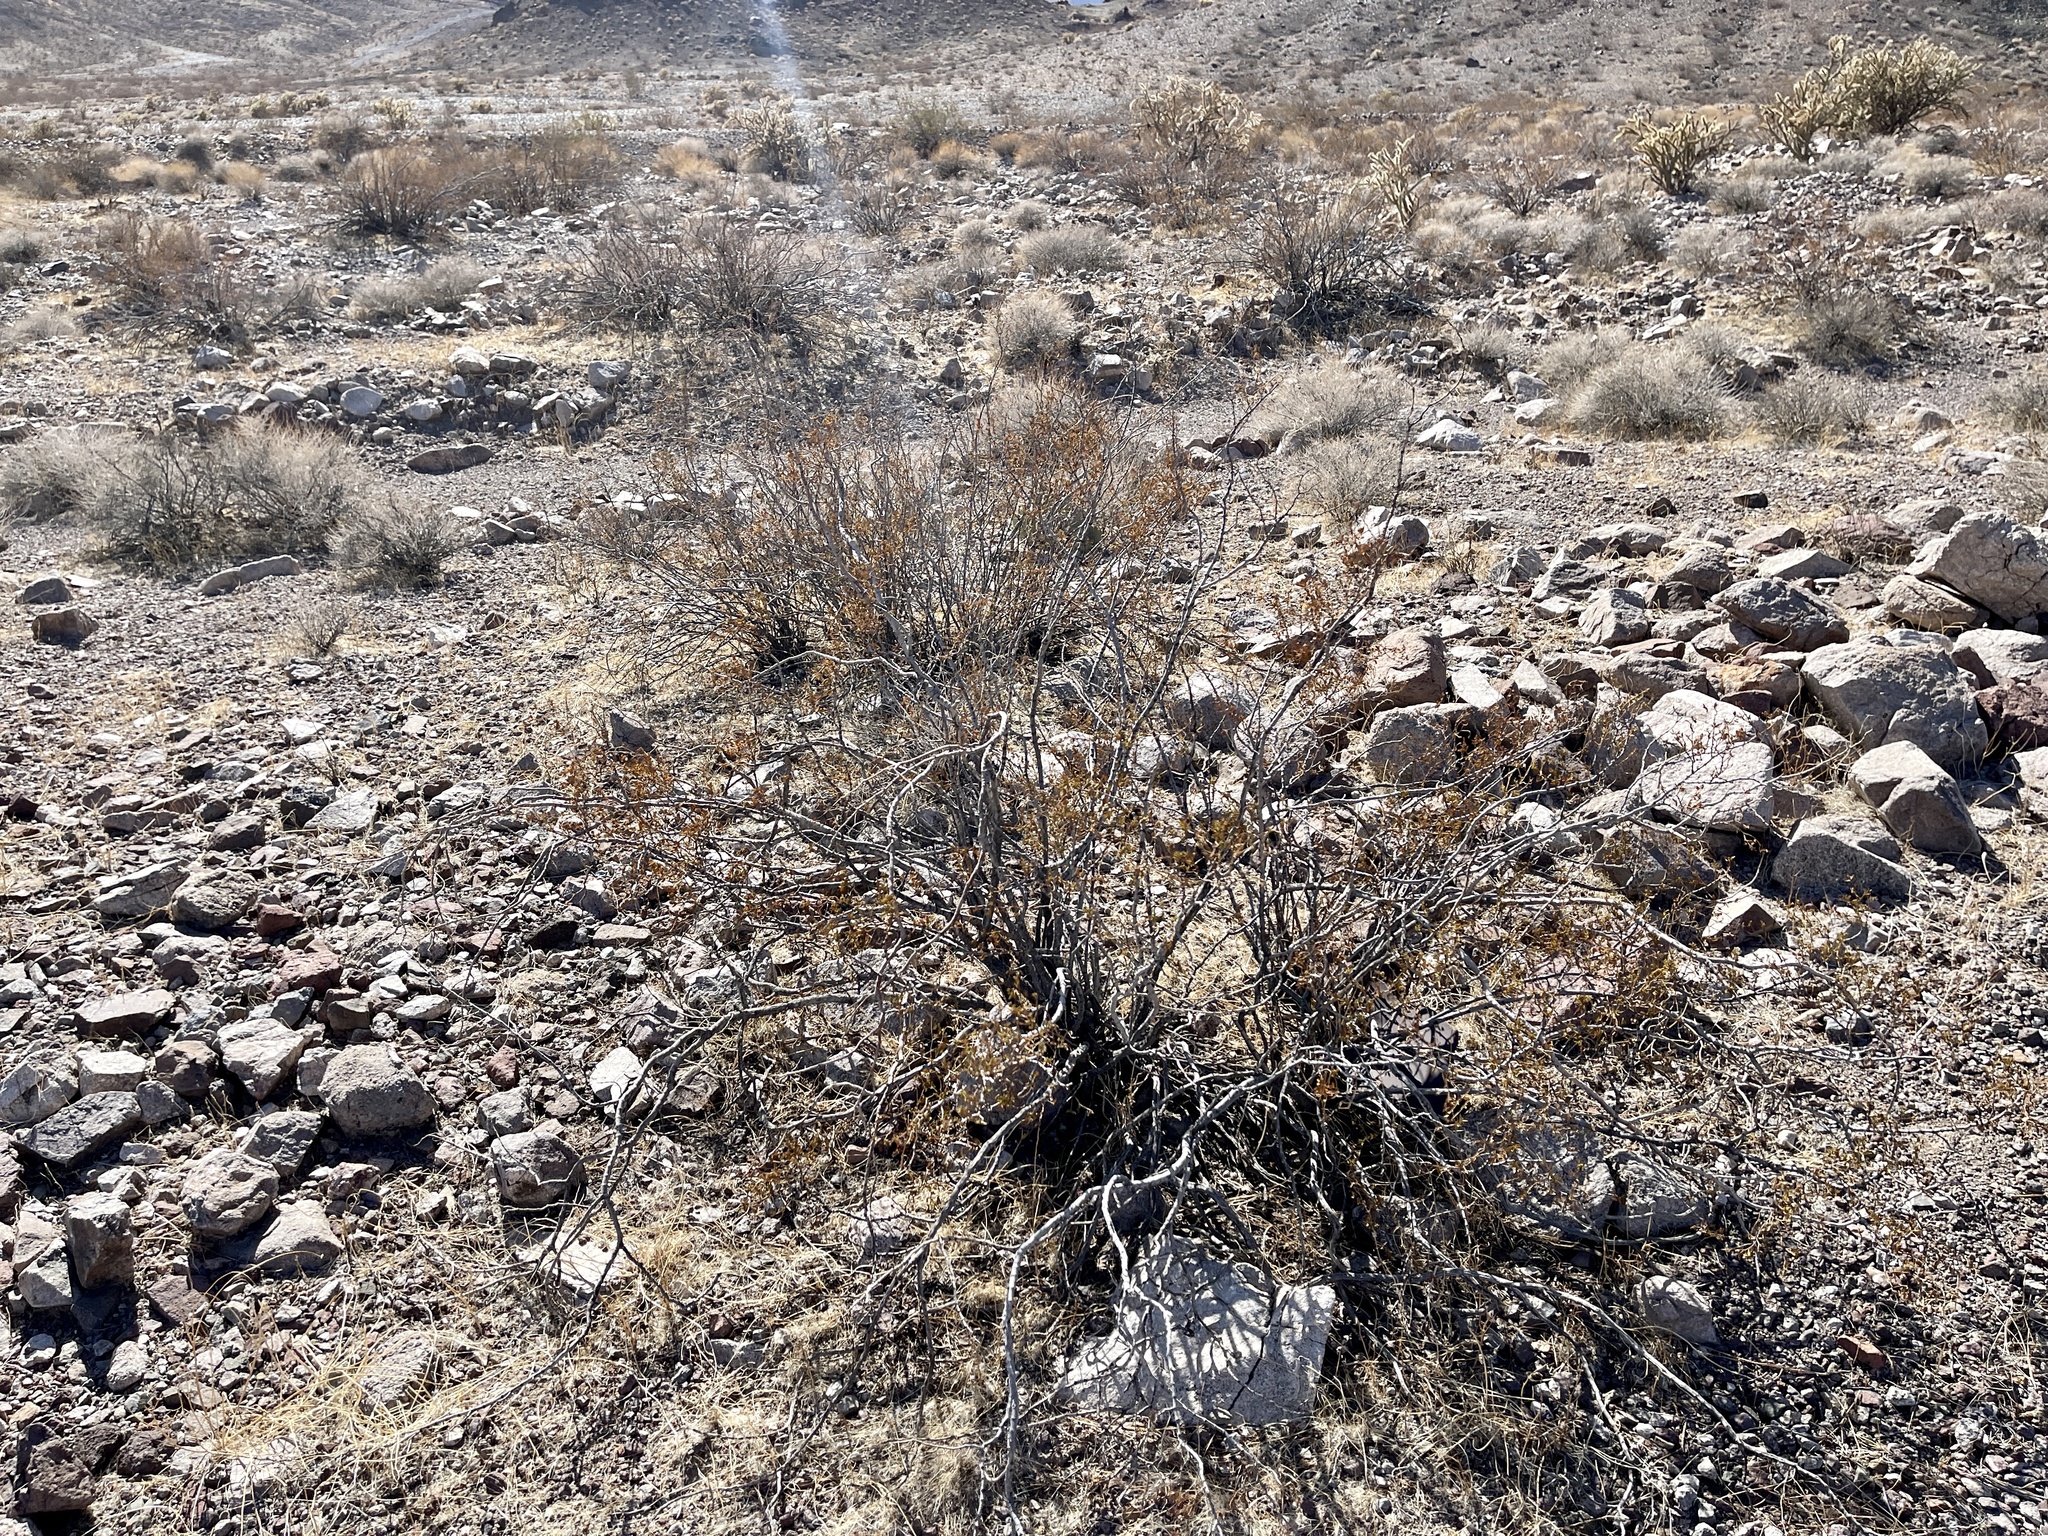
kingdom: Plantae
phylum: Tracheophyta
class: Magnoliopsida
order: Zygophyllales
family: Zygophyllaceae
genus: Larrea
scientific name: Larrea tridentata
